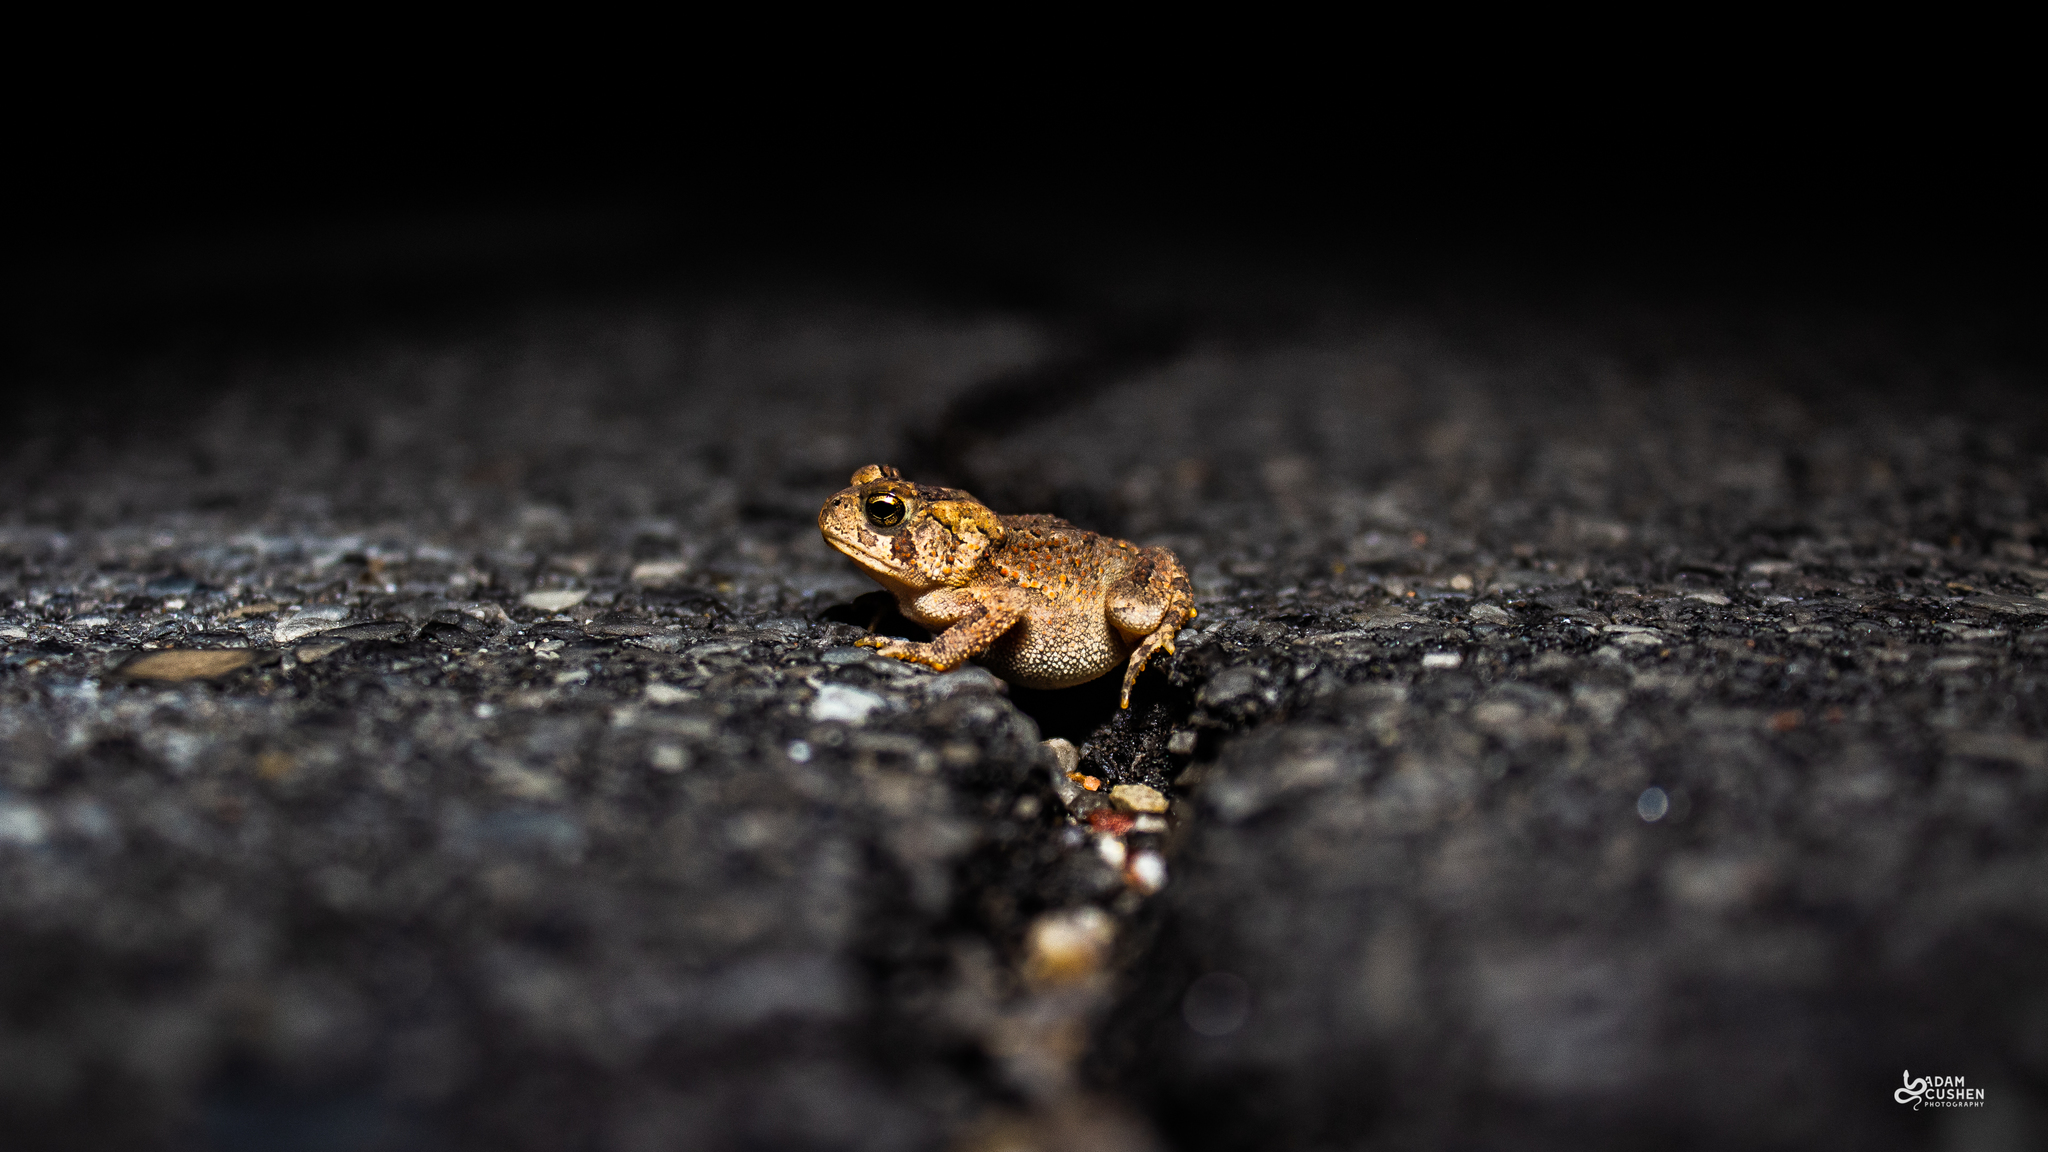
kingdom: Animalia
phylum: Chordata
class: Amphibia
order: Anura
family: Bufonidae
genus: Anaxyrus
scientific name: Anaxyrus americanus
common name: American toad
